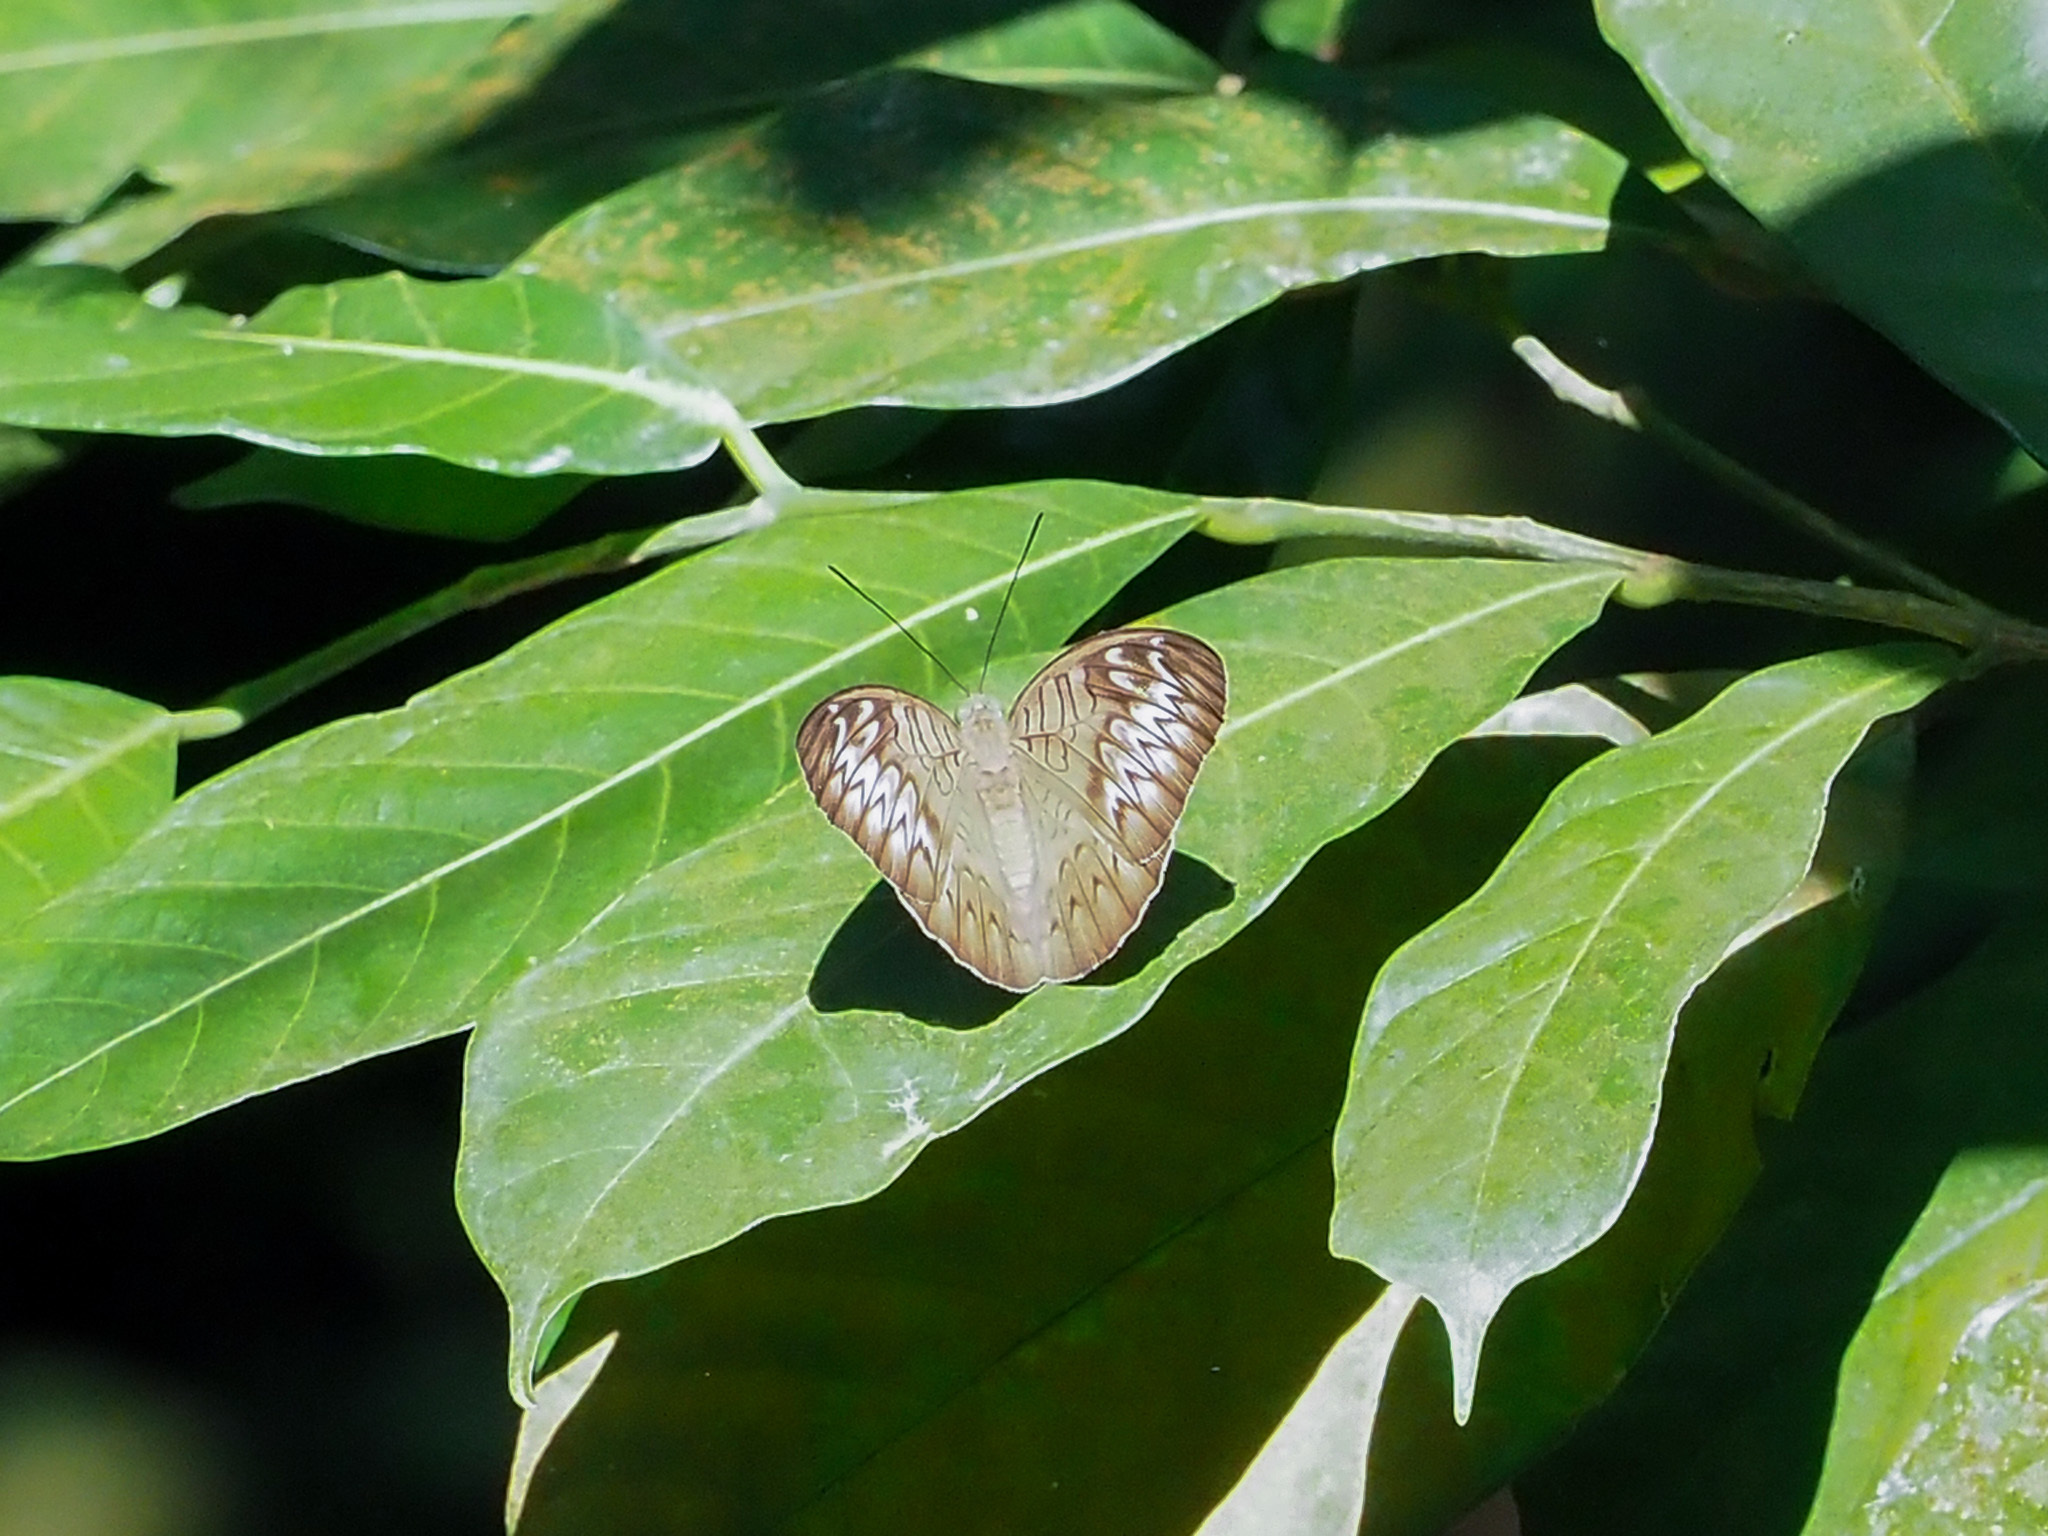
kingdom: Animalia
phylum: Arthropoda
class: Insecta
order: Lepidoptera
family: Nymphalidae
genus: Tanaecia
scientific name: Tanaecia pelea
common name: Malay viscount
